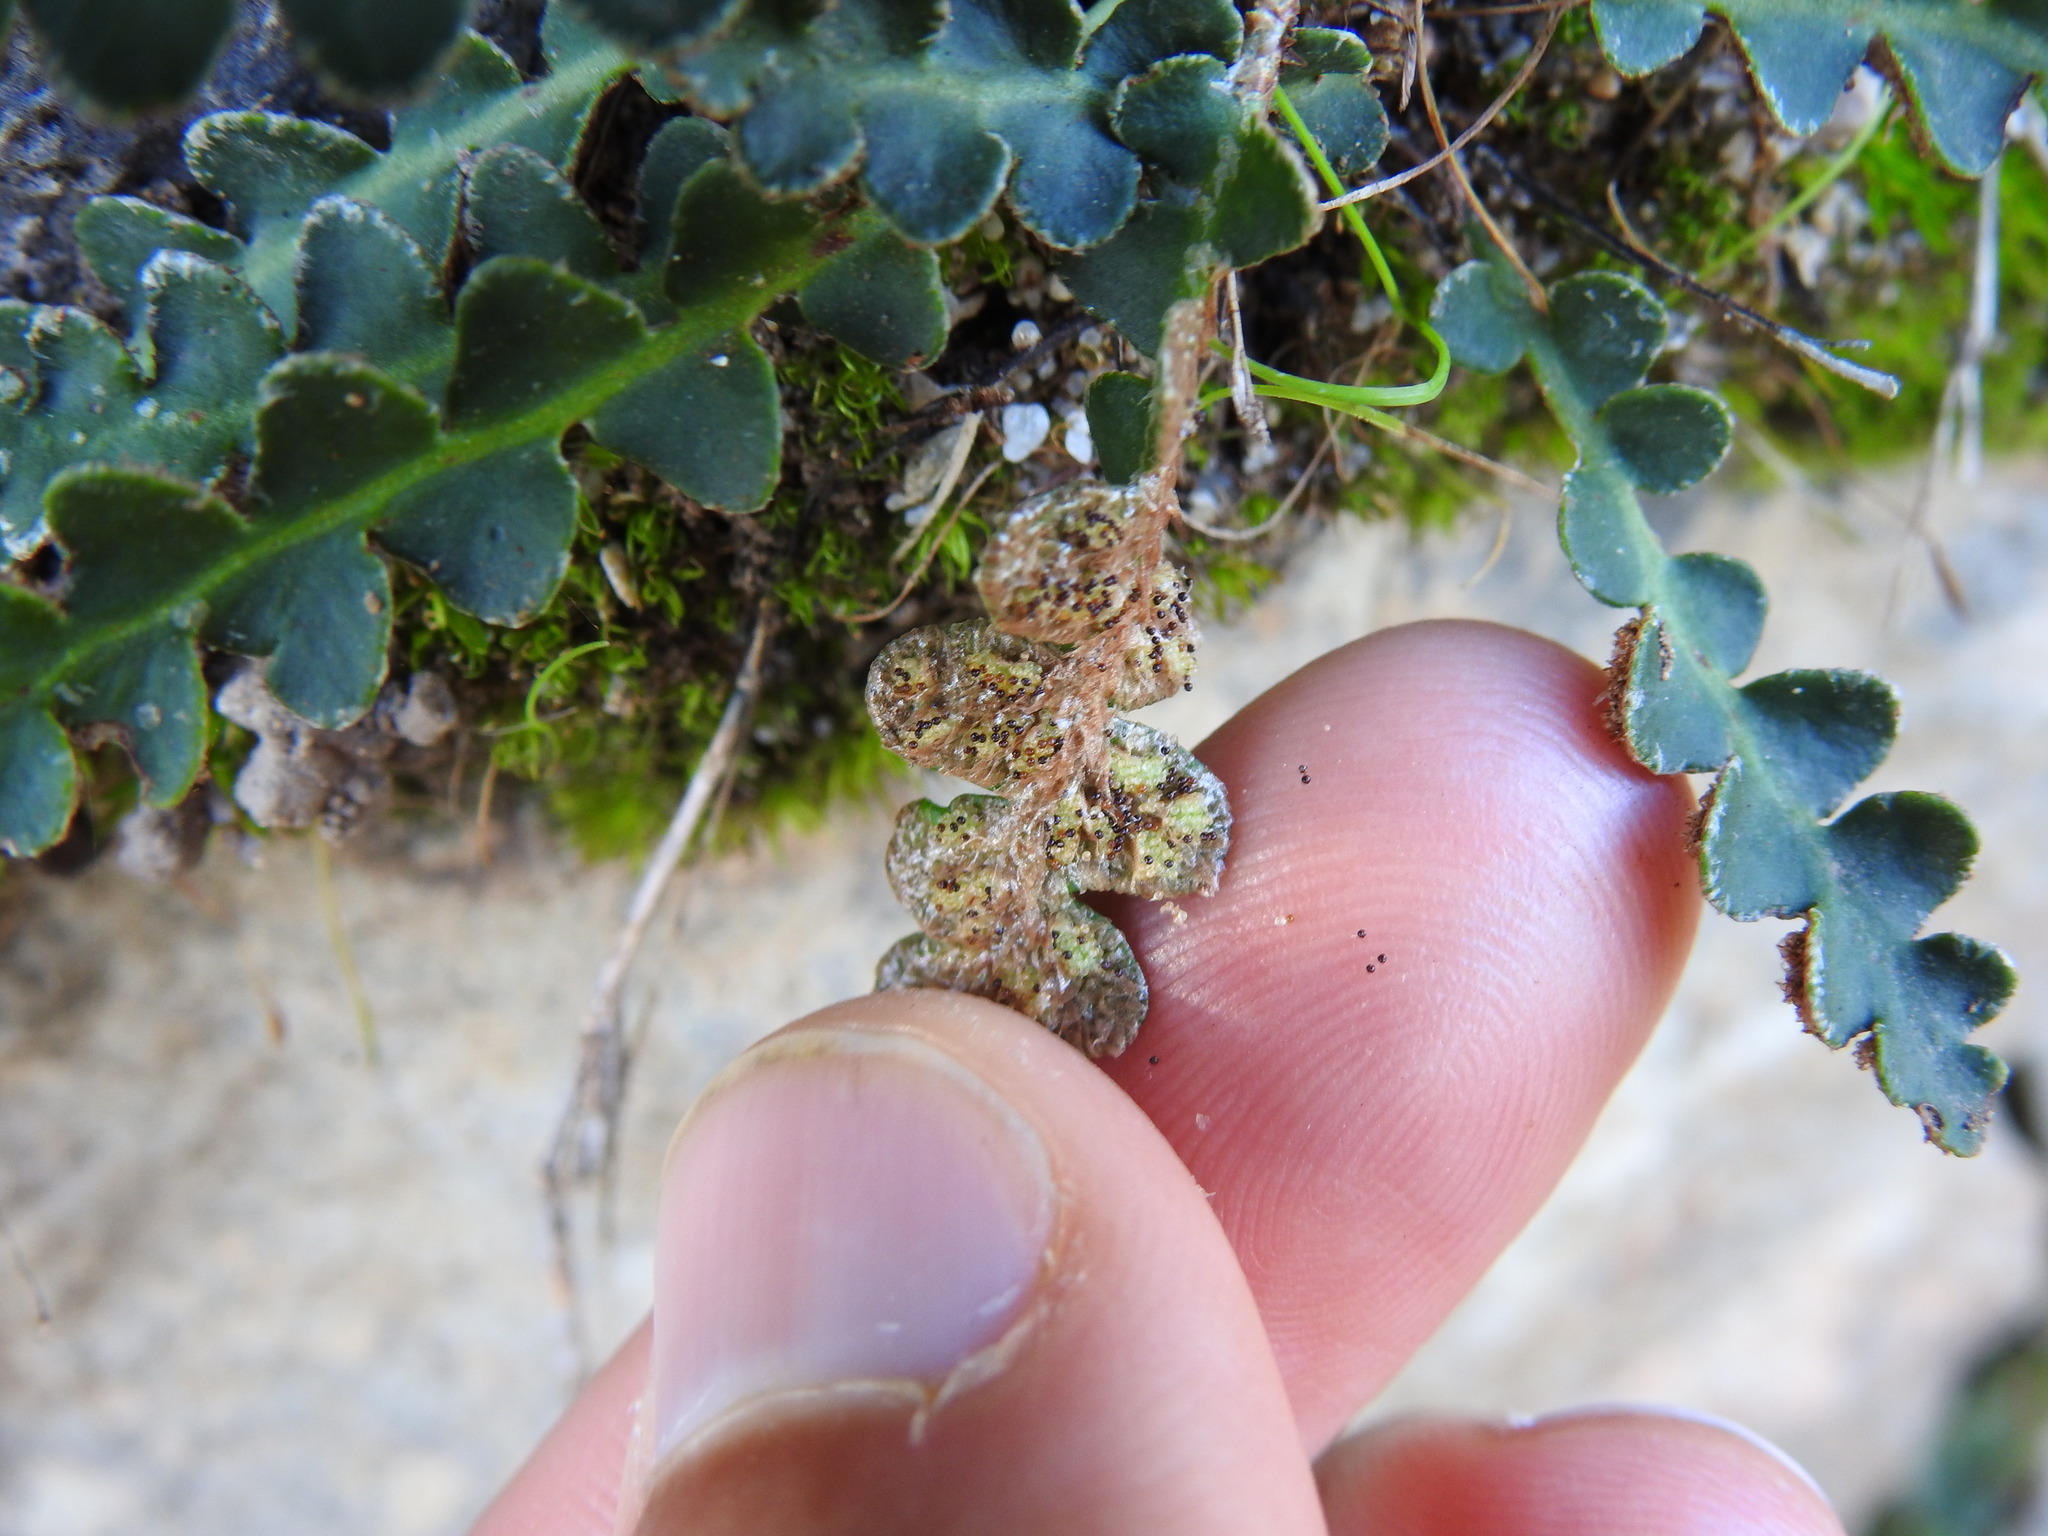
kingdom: Plantae
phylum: Tracheophyta
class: Polypodiopsida
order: Polypodiales
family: Aspleniaceae
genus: Asplenium
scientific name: Asplenium ceterach
